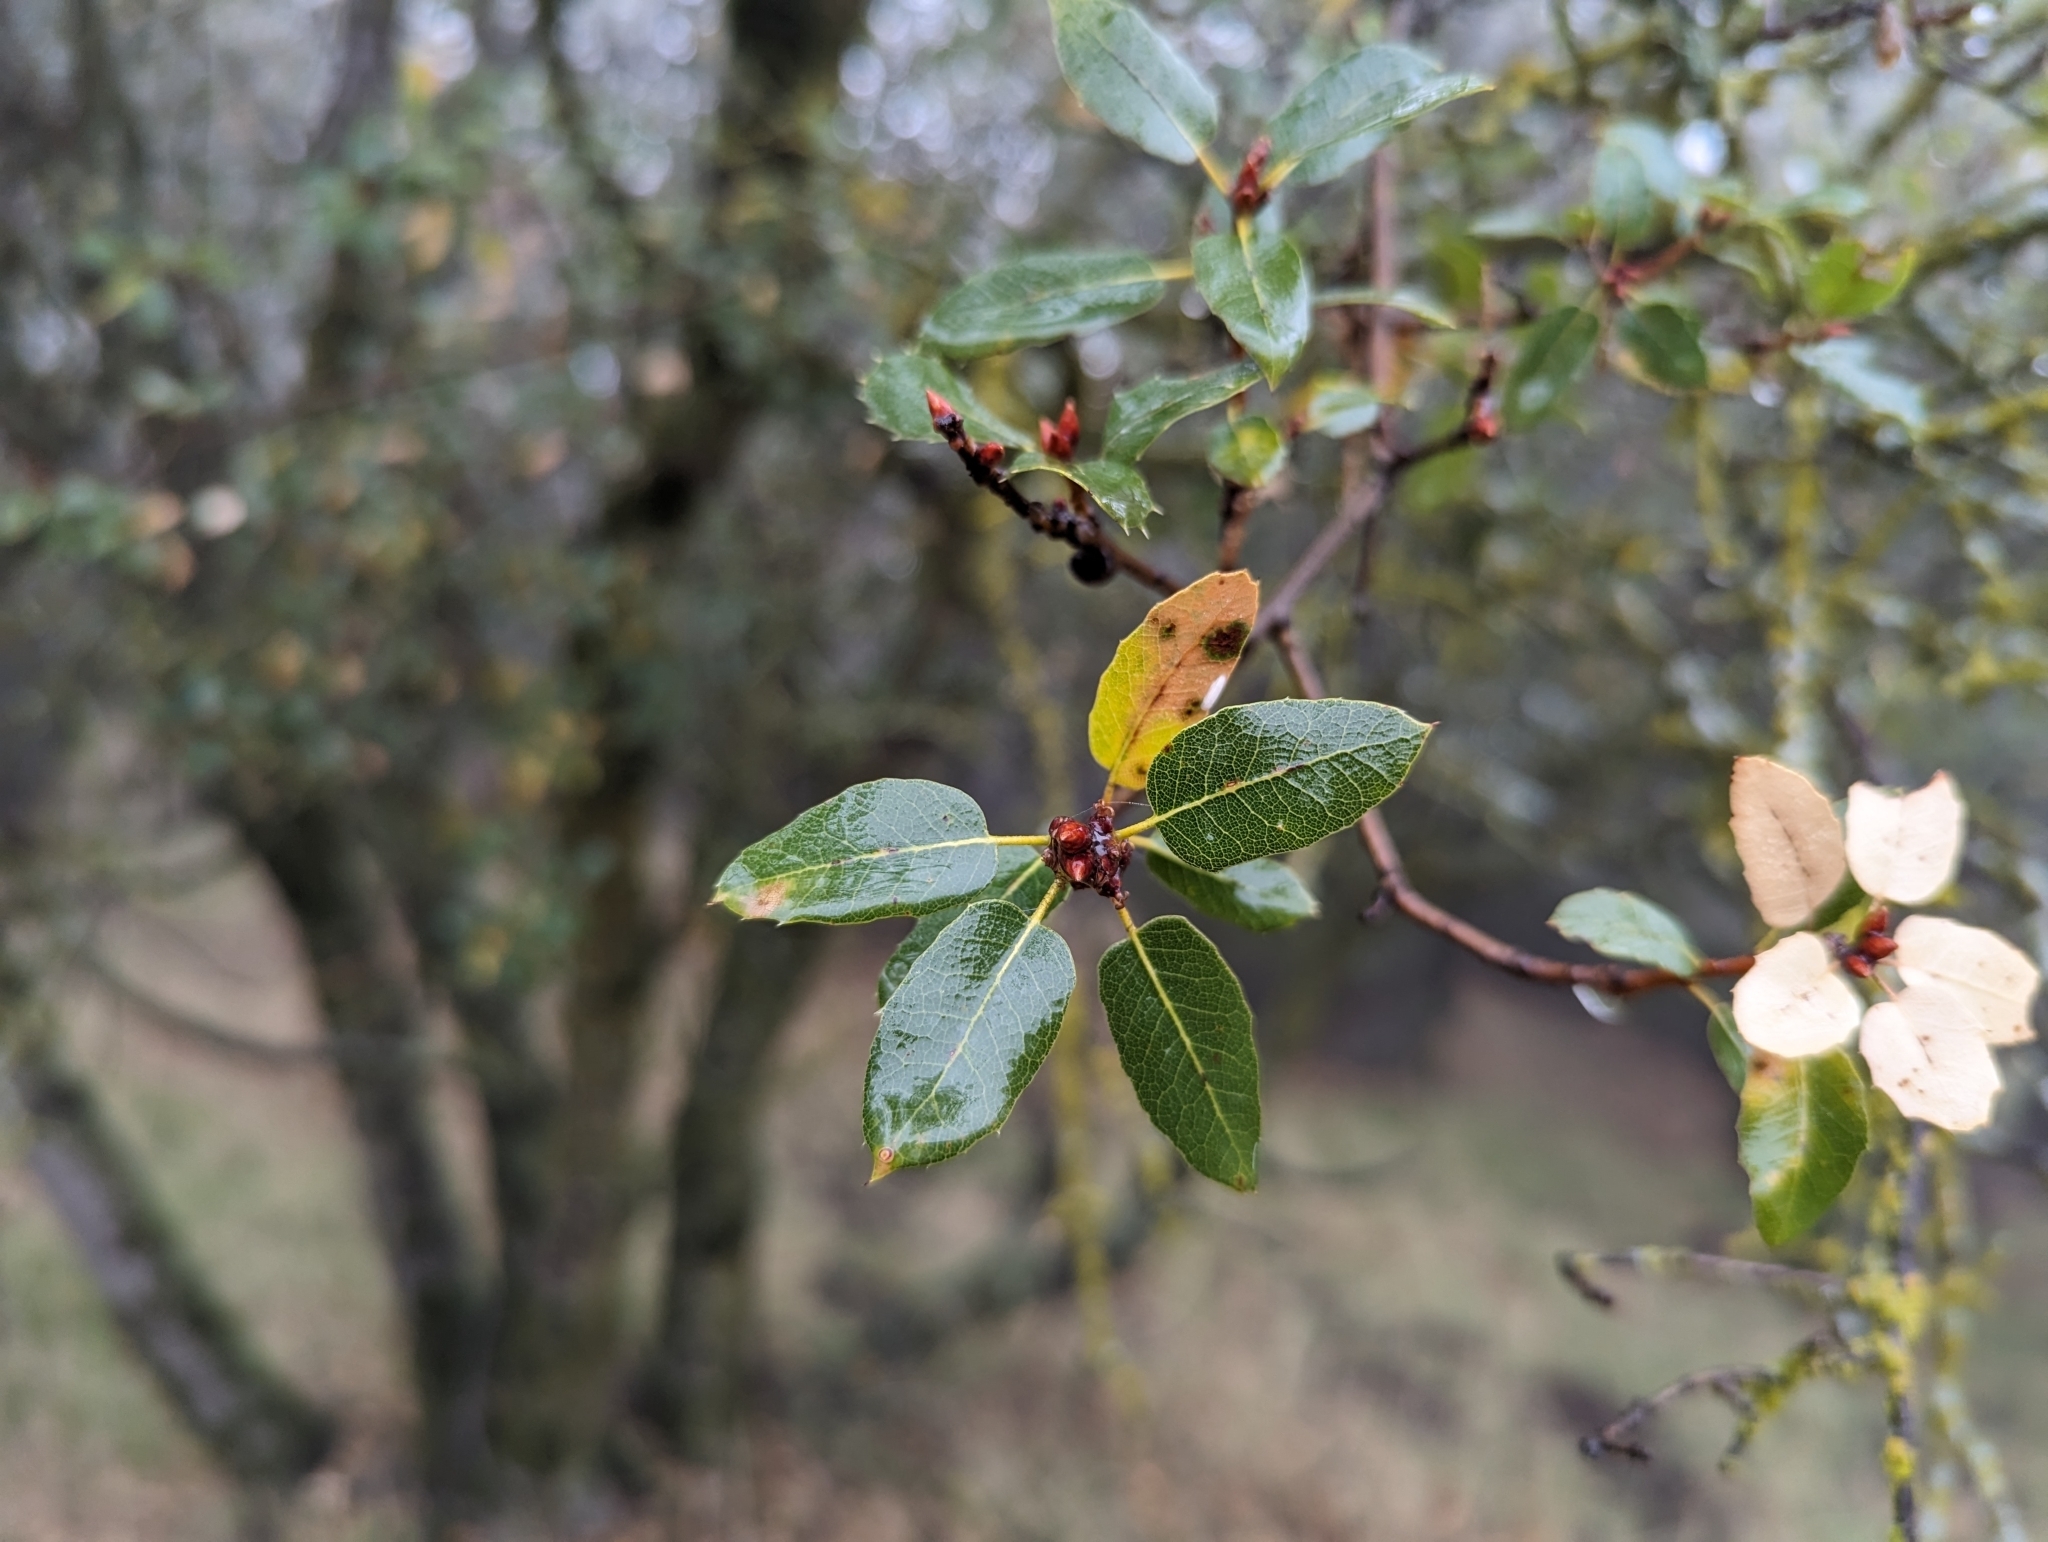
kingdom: Plantae
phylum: Tracheophyta
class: Magnoliopsida
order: Fagales
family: Fagaceae
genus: Quercus
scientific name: Quercus wislizeni
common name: Interior live oak
